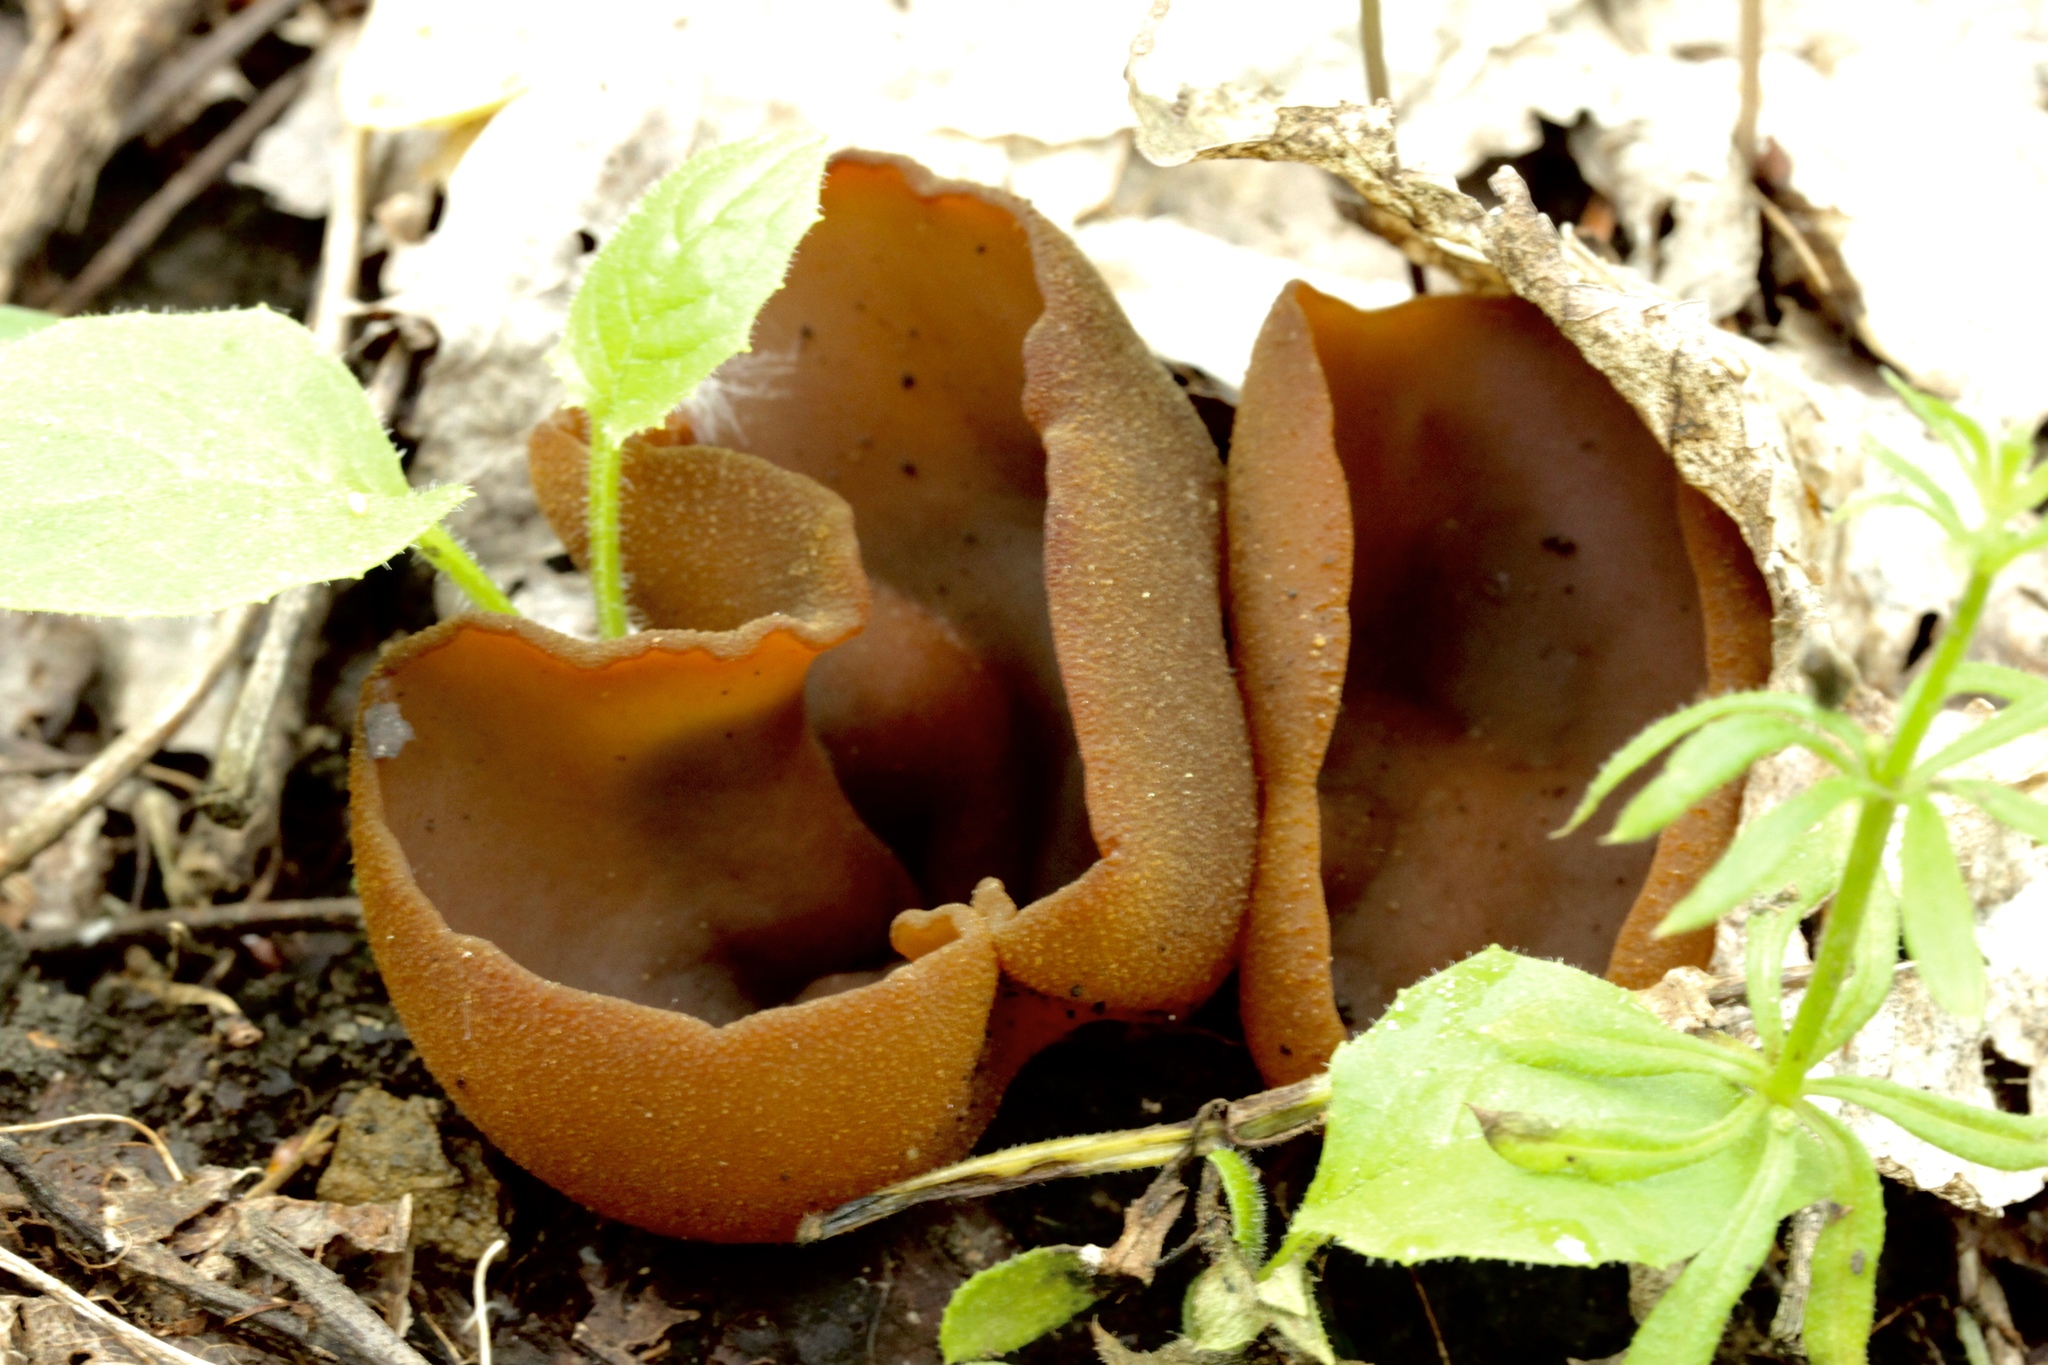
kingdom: Fungi
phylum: Ascomycota
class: Pezizomycetes
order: Pezizales
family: Pezizaceae
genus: Phylloscypha
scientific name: Phylloscypha phyllogena
